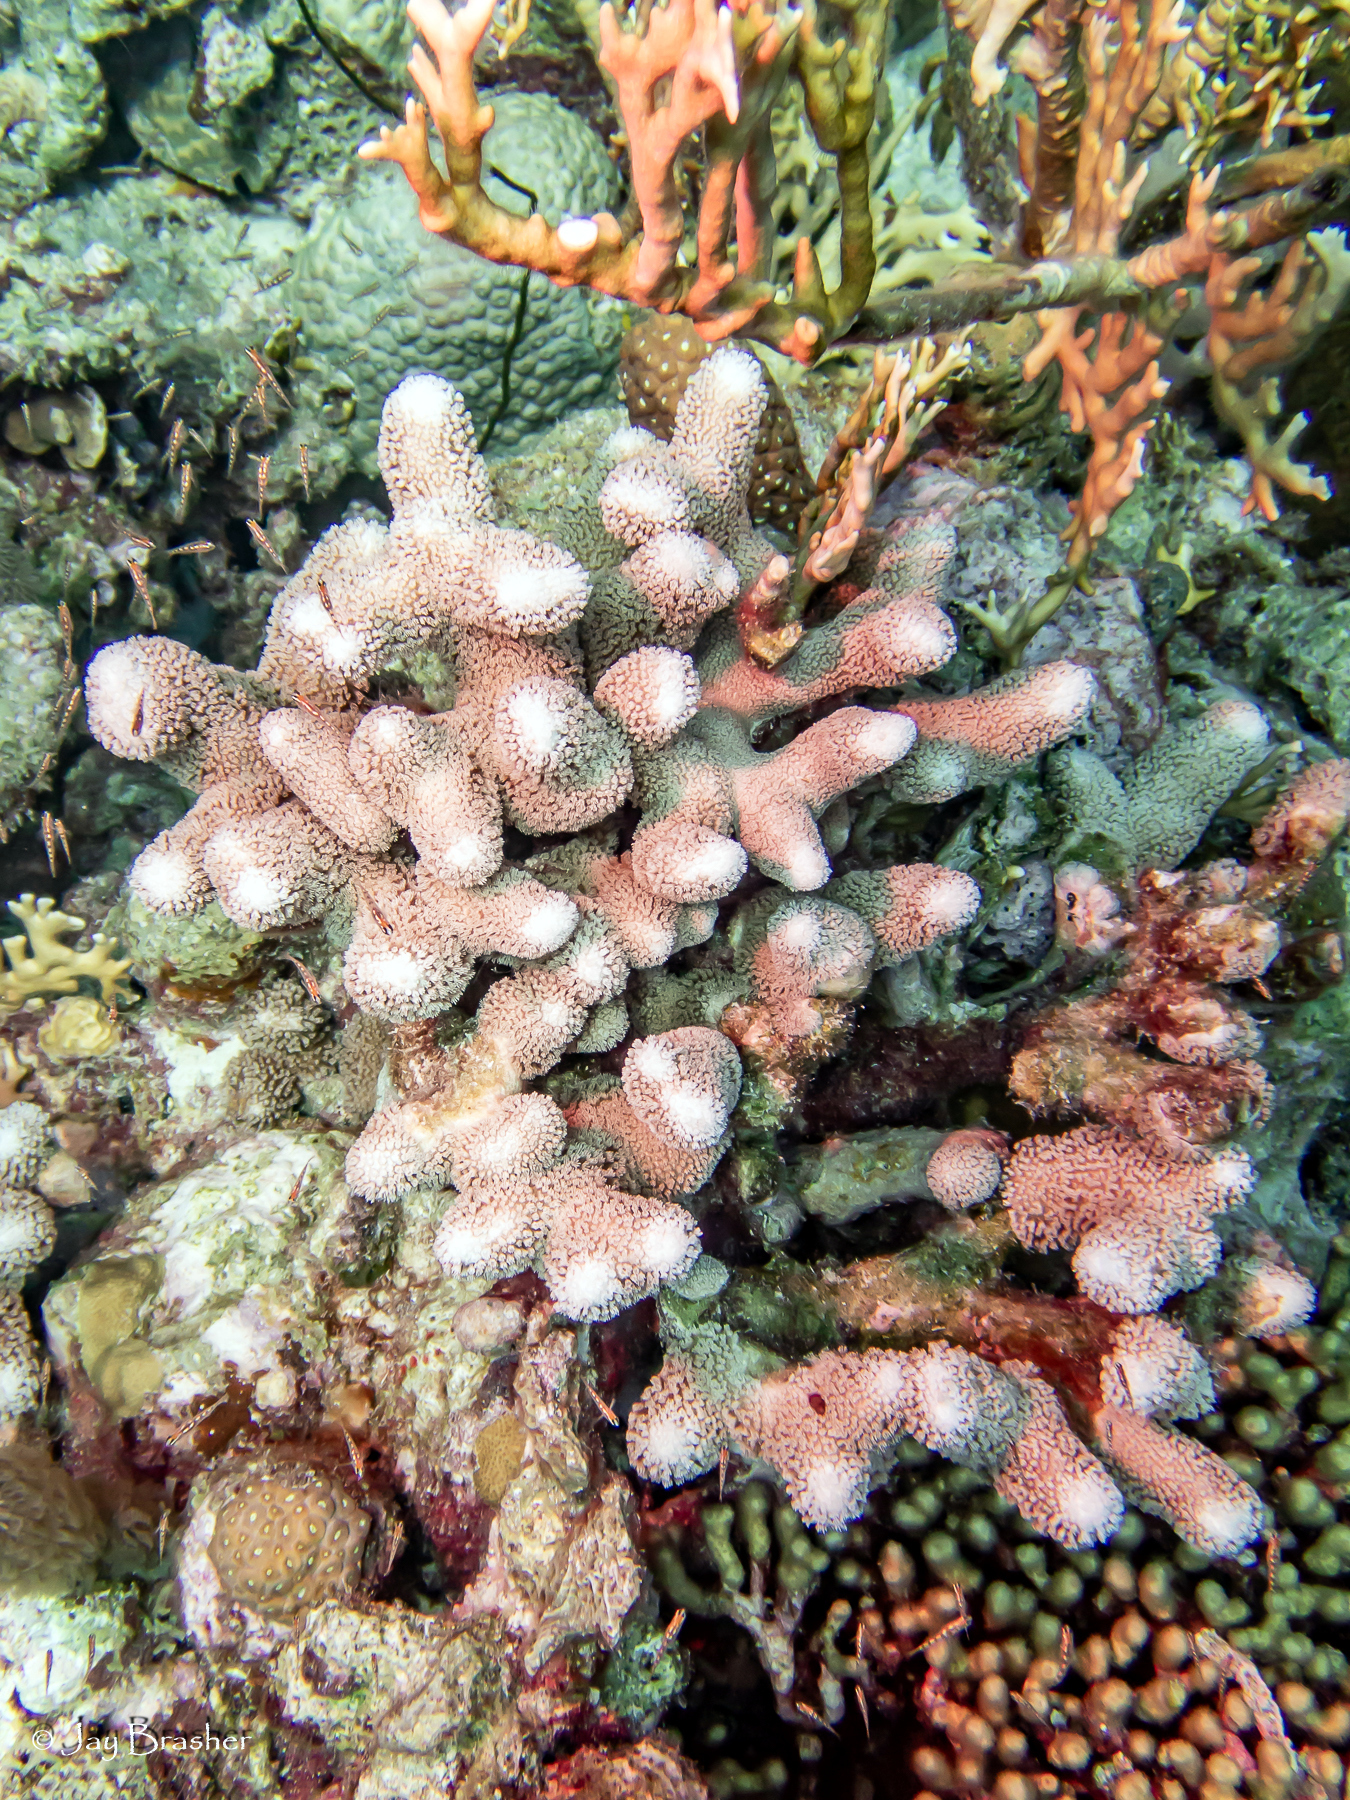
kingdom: Animalia
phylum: Cnidaria
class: Hydrozoa
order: Anthoathecata
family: Milleporidae
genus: Millepora
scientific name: Millepora alcicornis
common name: Branching fire coral
